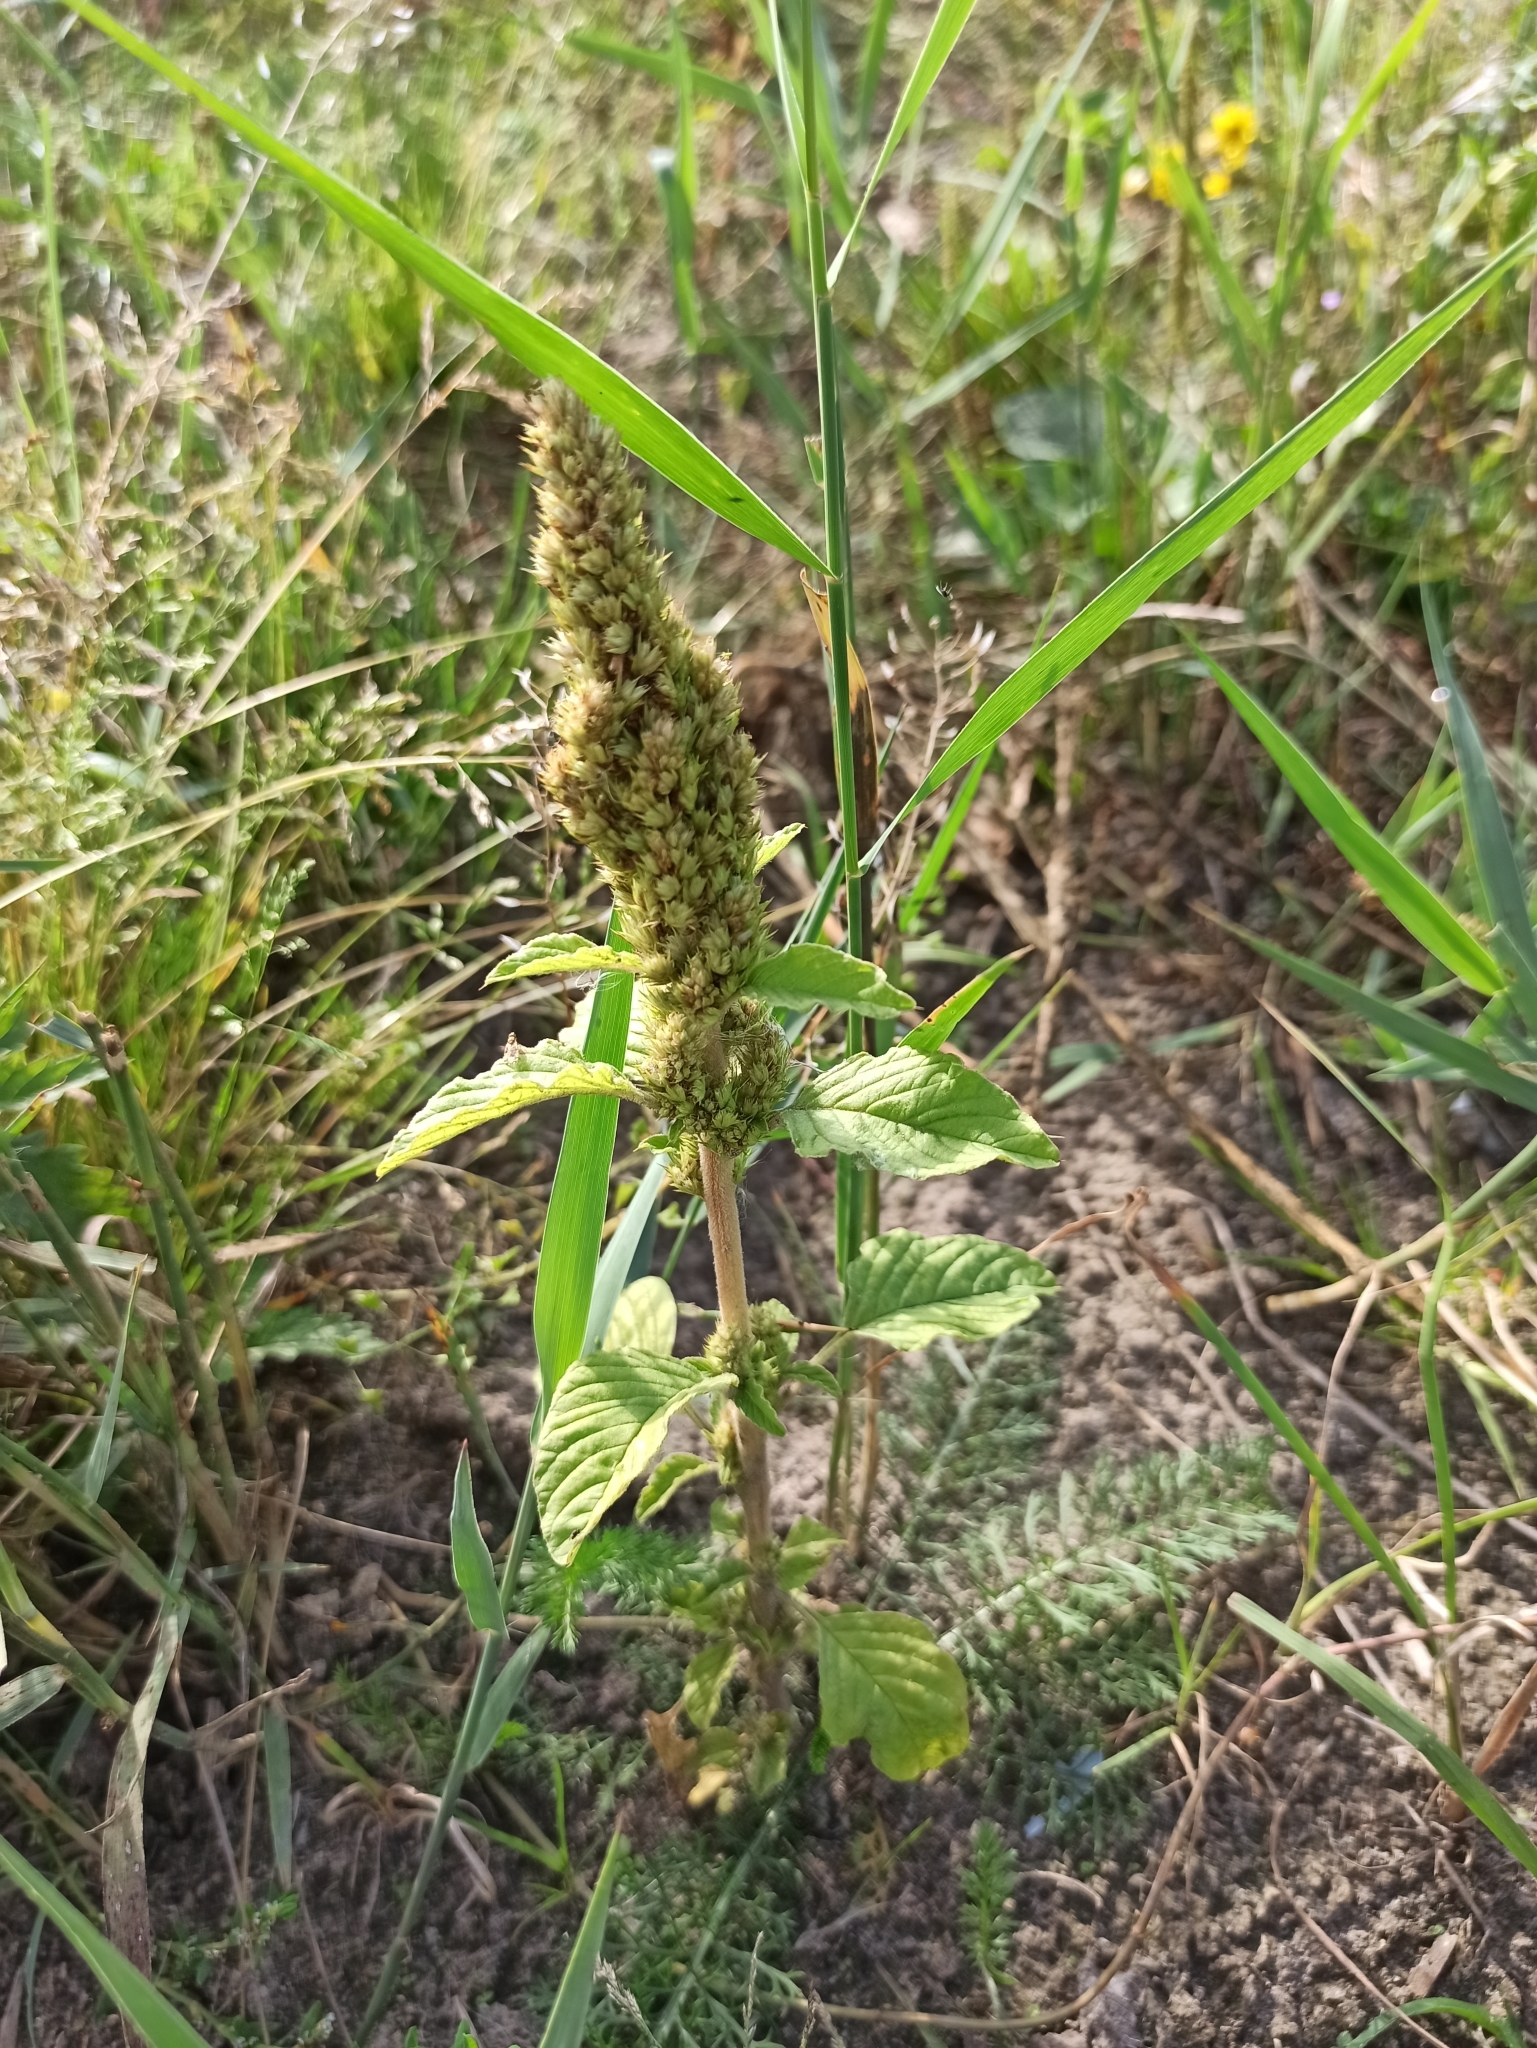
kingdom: Plantae
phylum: Tracheophyta
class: Magnoliopsida
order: Caryophyllales
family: Amaranthaceae
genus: Amaranthus
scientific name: Amaranthus retroflexus
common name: Redroot amaranth
